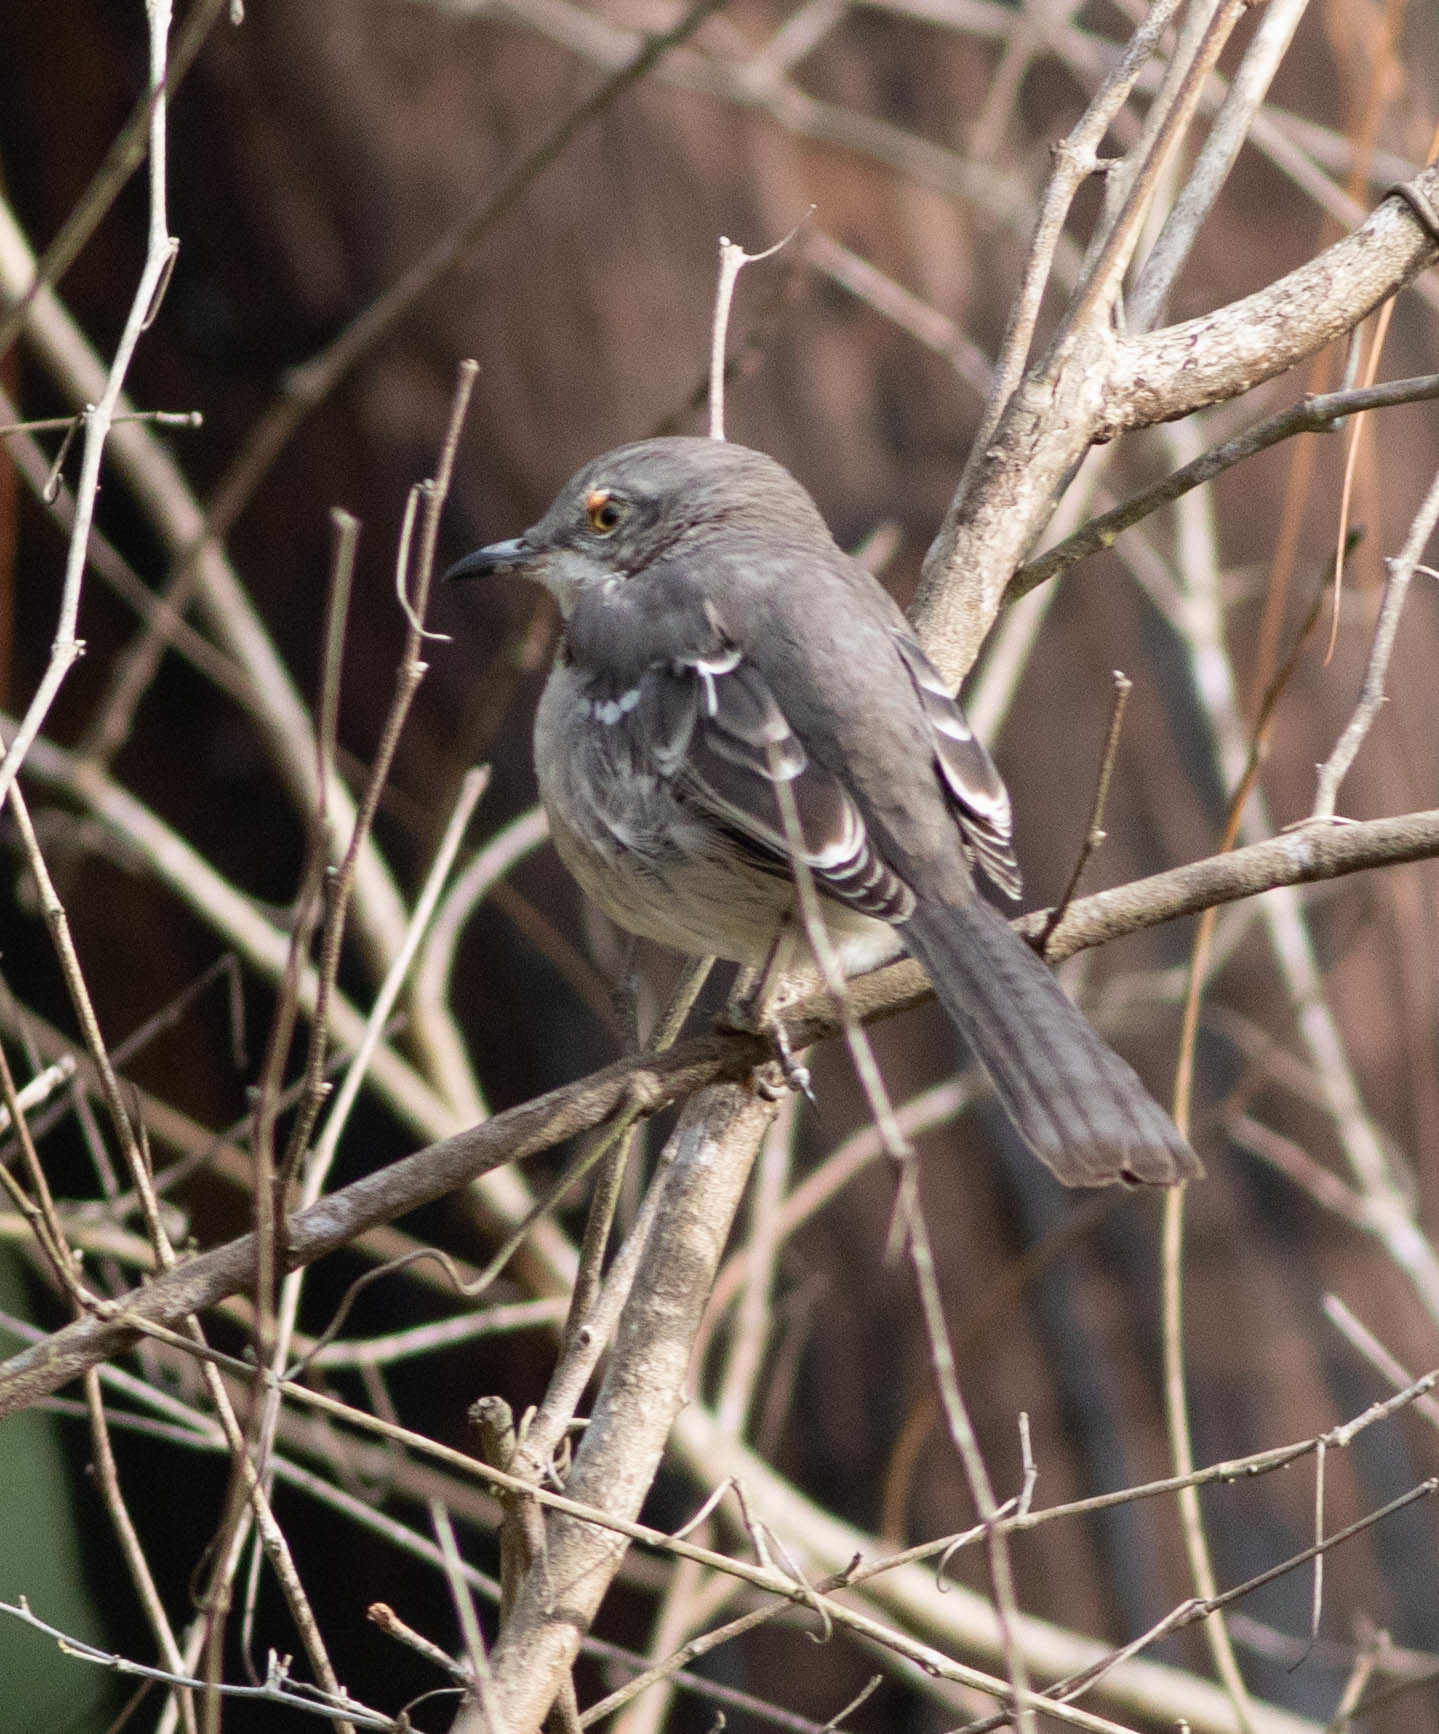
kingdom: Animalia
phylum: Chordata
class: Aves
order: Passeriformes
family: Mimidae
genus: Mimus
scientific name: Mimus polyglottos
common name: Northern mockingbird
